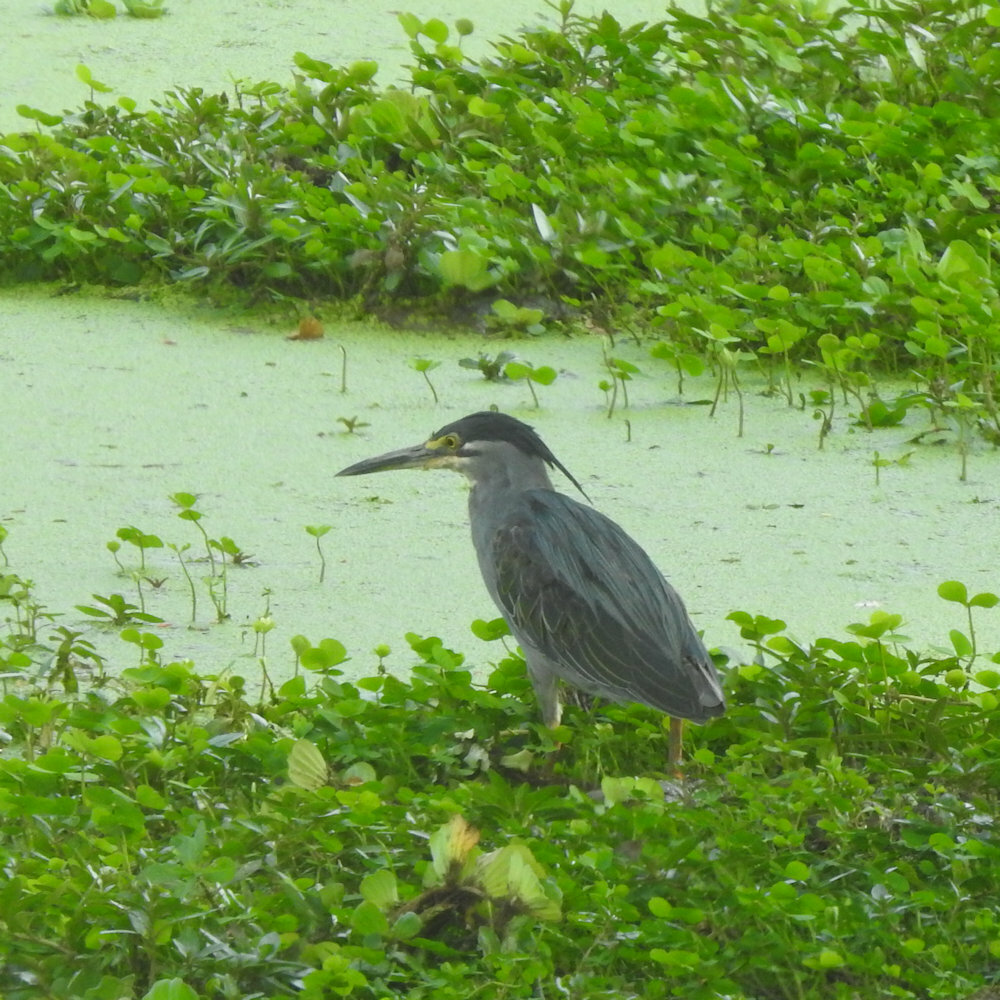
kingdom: Animalia
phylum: Chordata
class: Aves
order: Pelecaniformes
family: Ardeidae
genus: Butorides
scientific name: Butorides striata
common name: Striated heron
